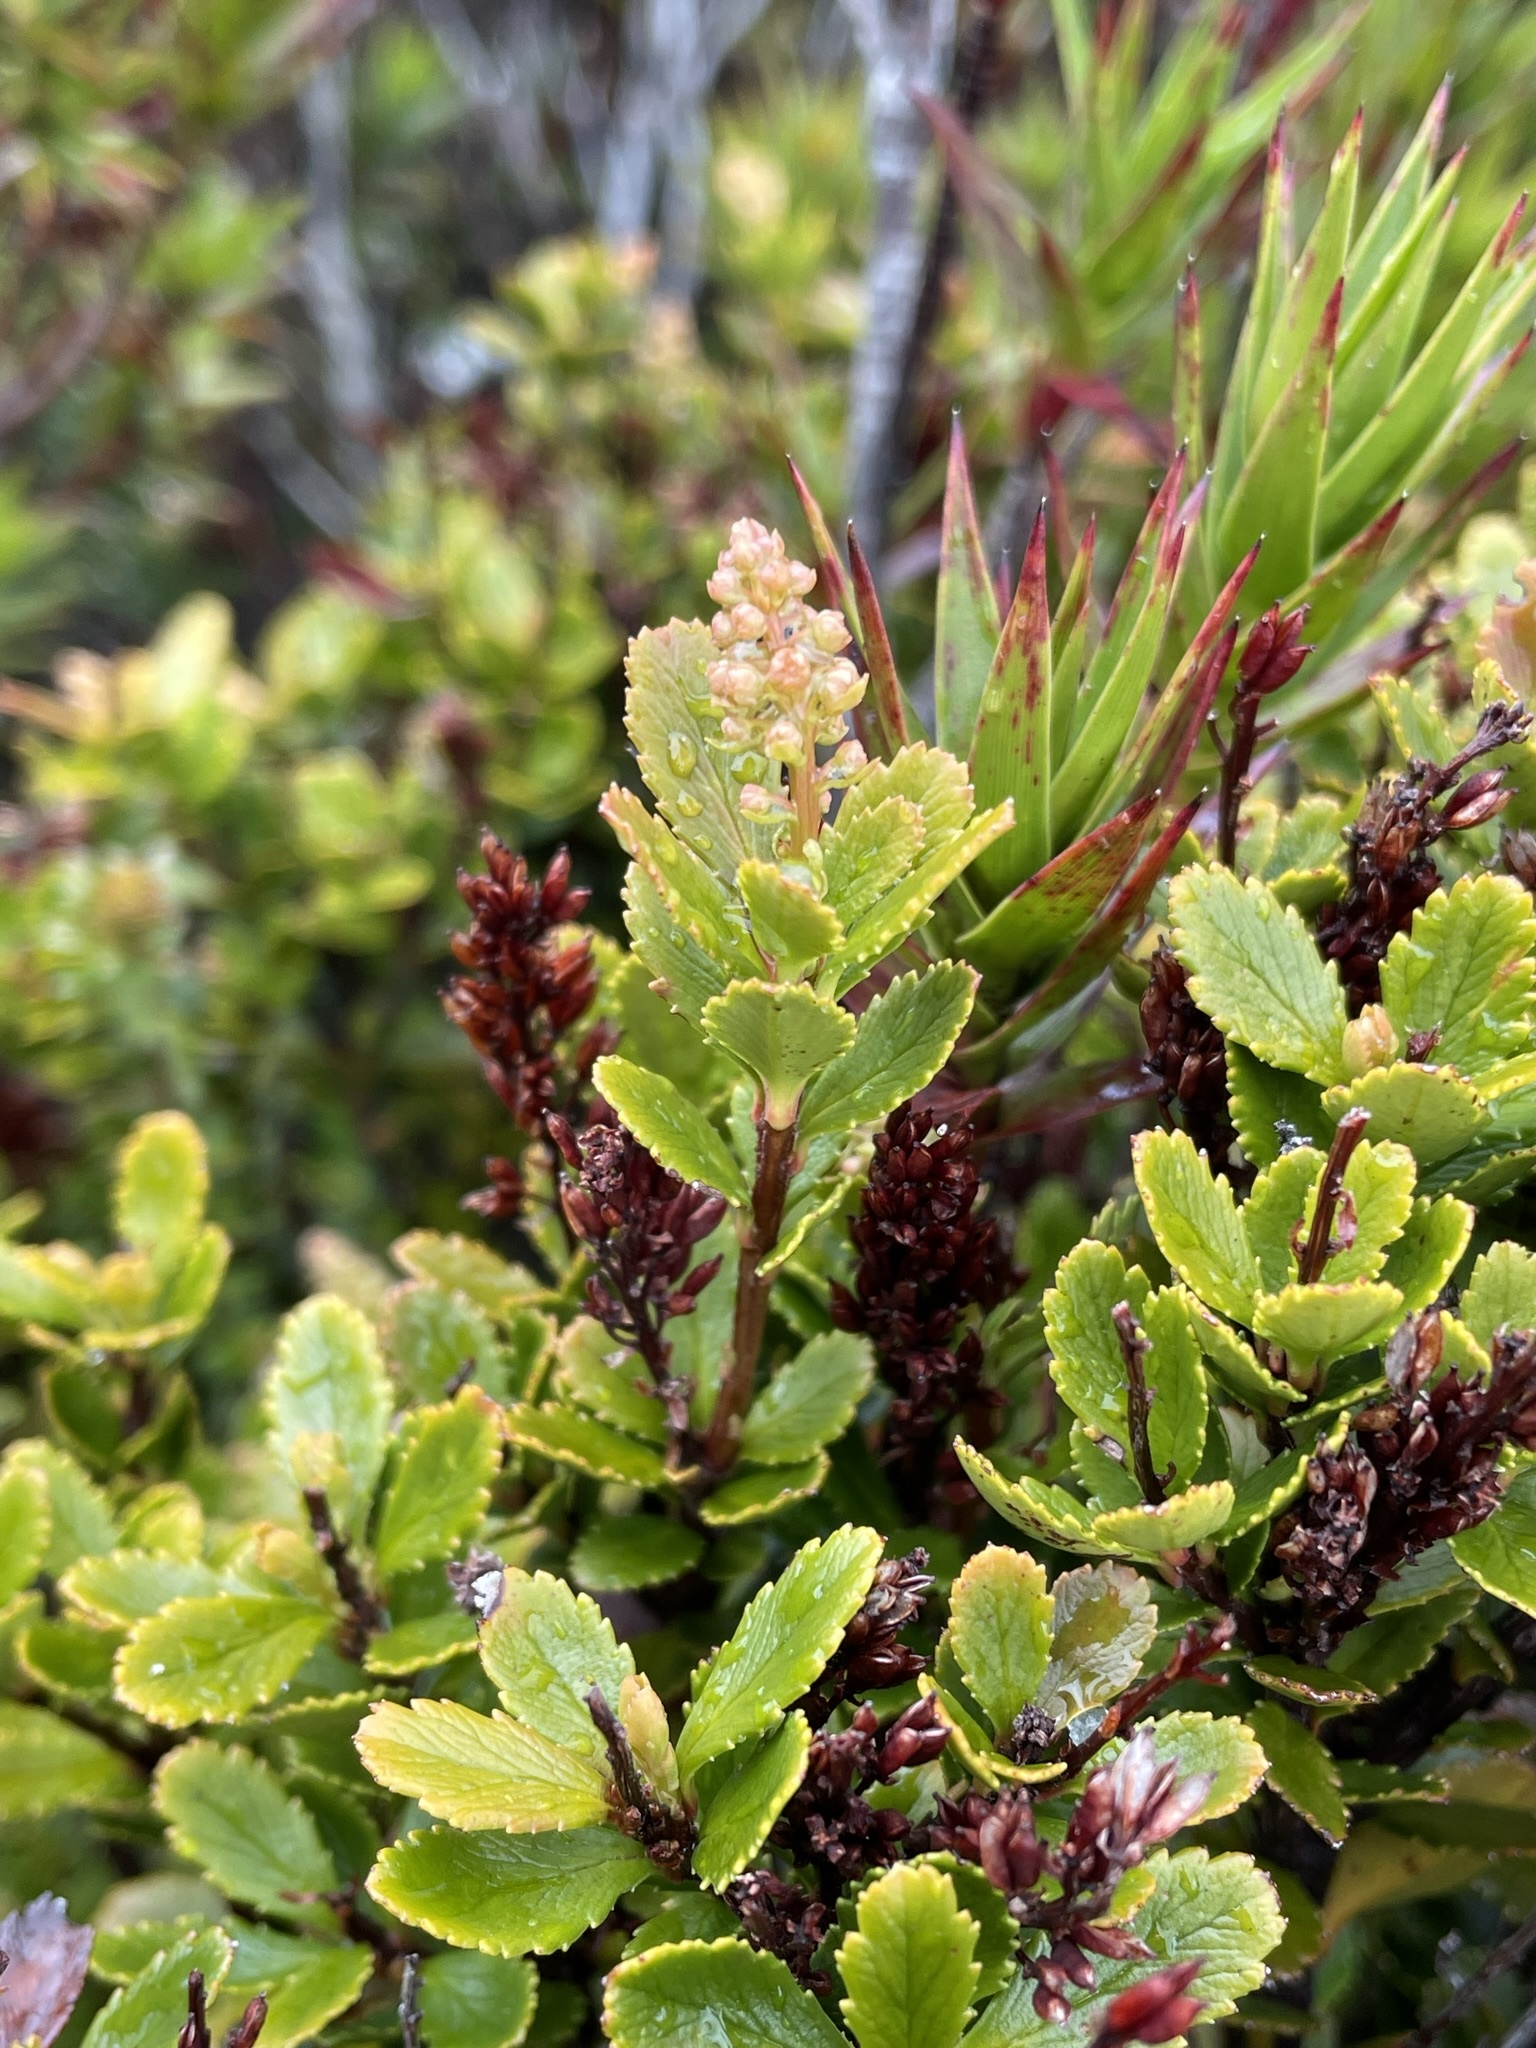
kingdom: Plantae
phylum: Tracheophyta
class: Magnoliopsida
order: Saxifragales
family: Tetracarpaeaceae
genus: Tetracarpaea
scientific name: Tetracarpaea tasmanica
